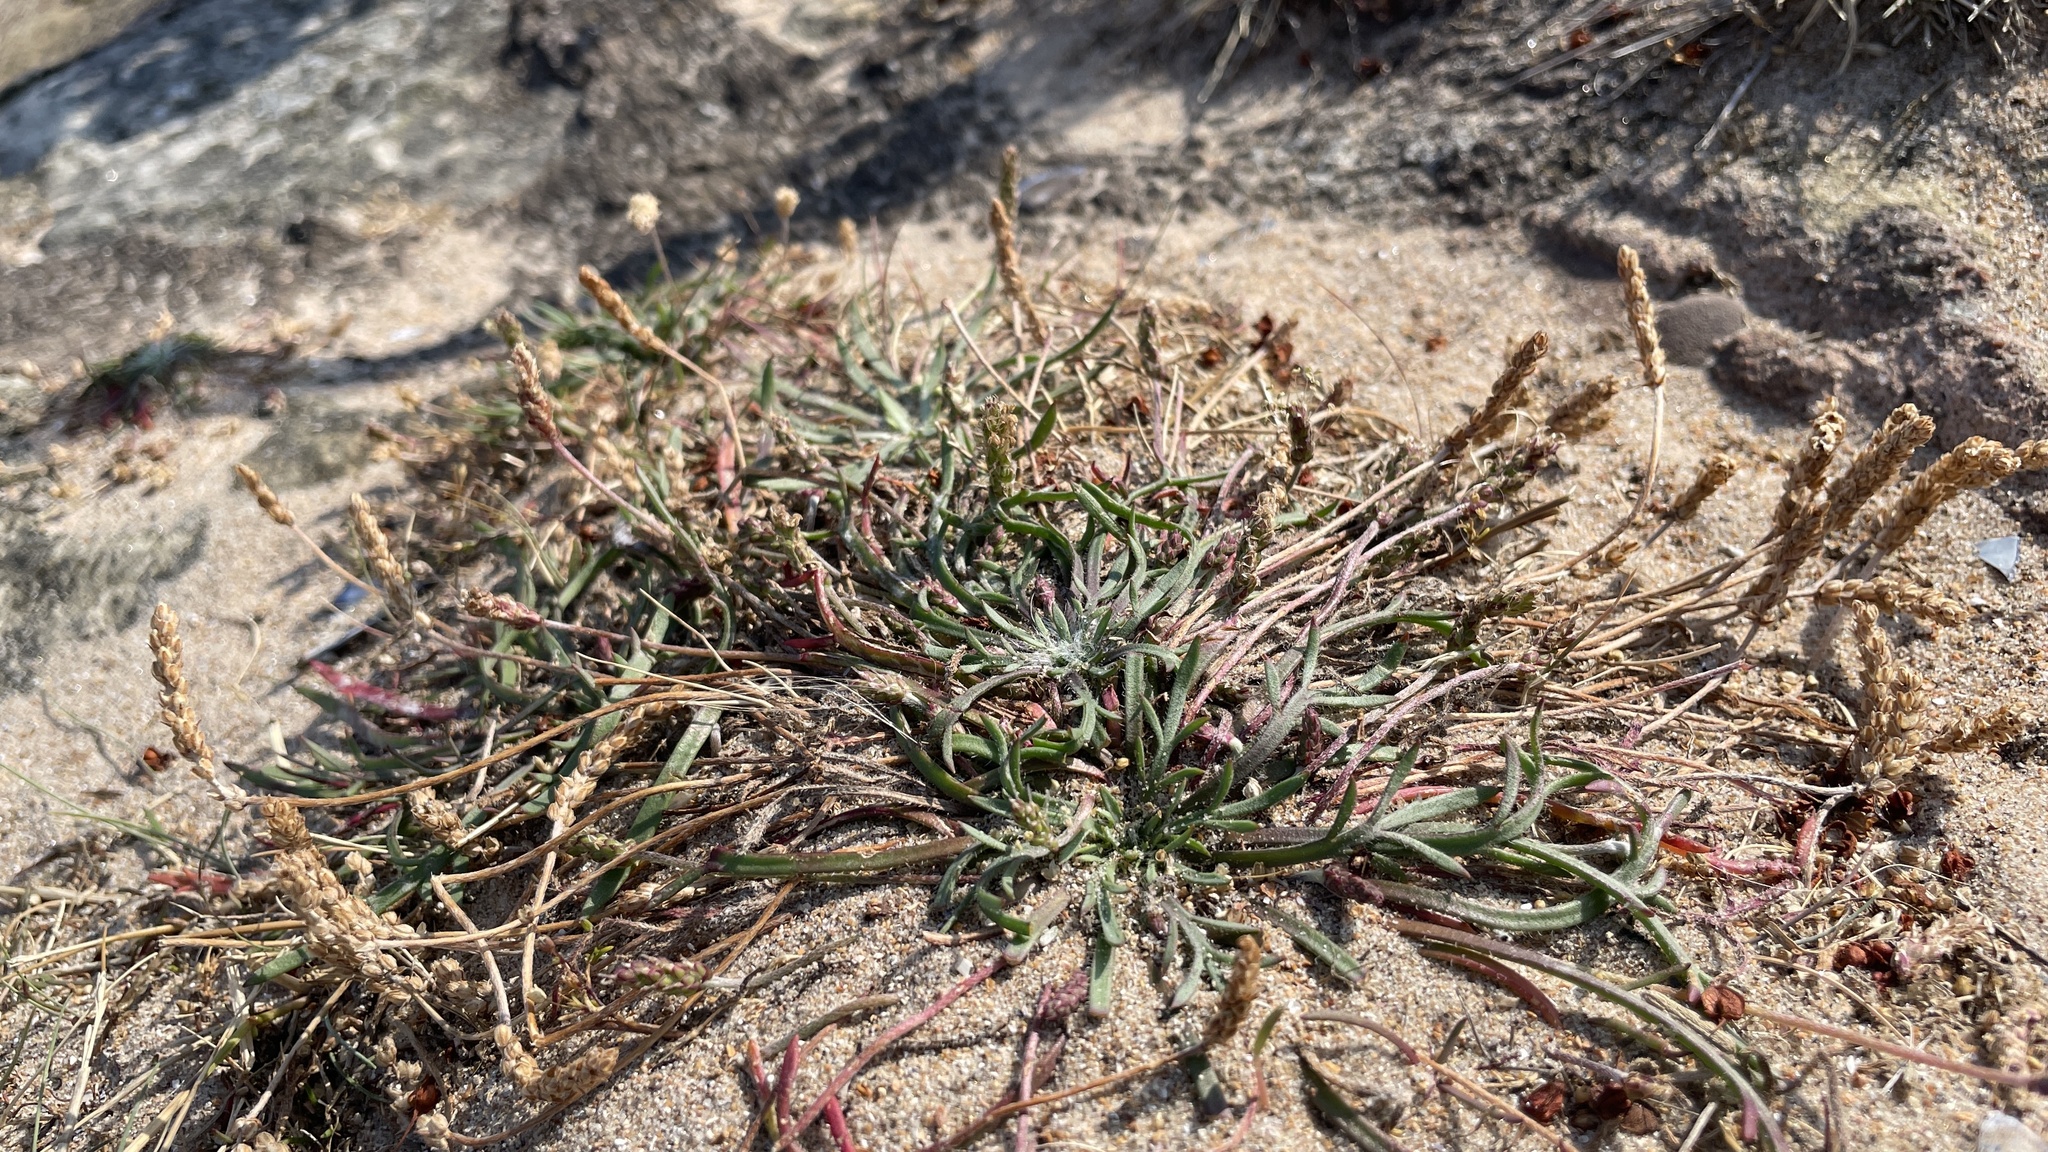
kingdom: Plantae
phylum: Tracheophyta
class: Magnoliopsida
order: Lamiales
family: Plantaginaceae
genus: Plantago
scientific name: Plantago coronopus
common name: Buck's-horn plantain
